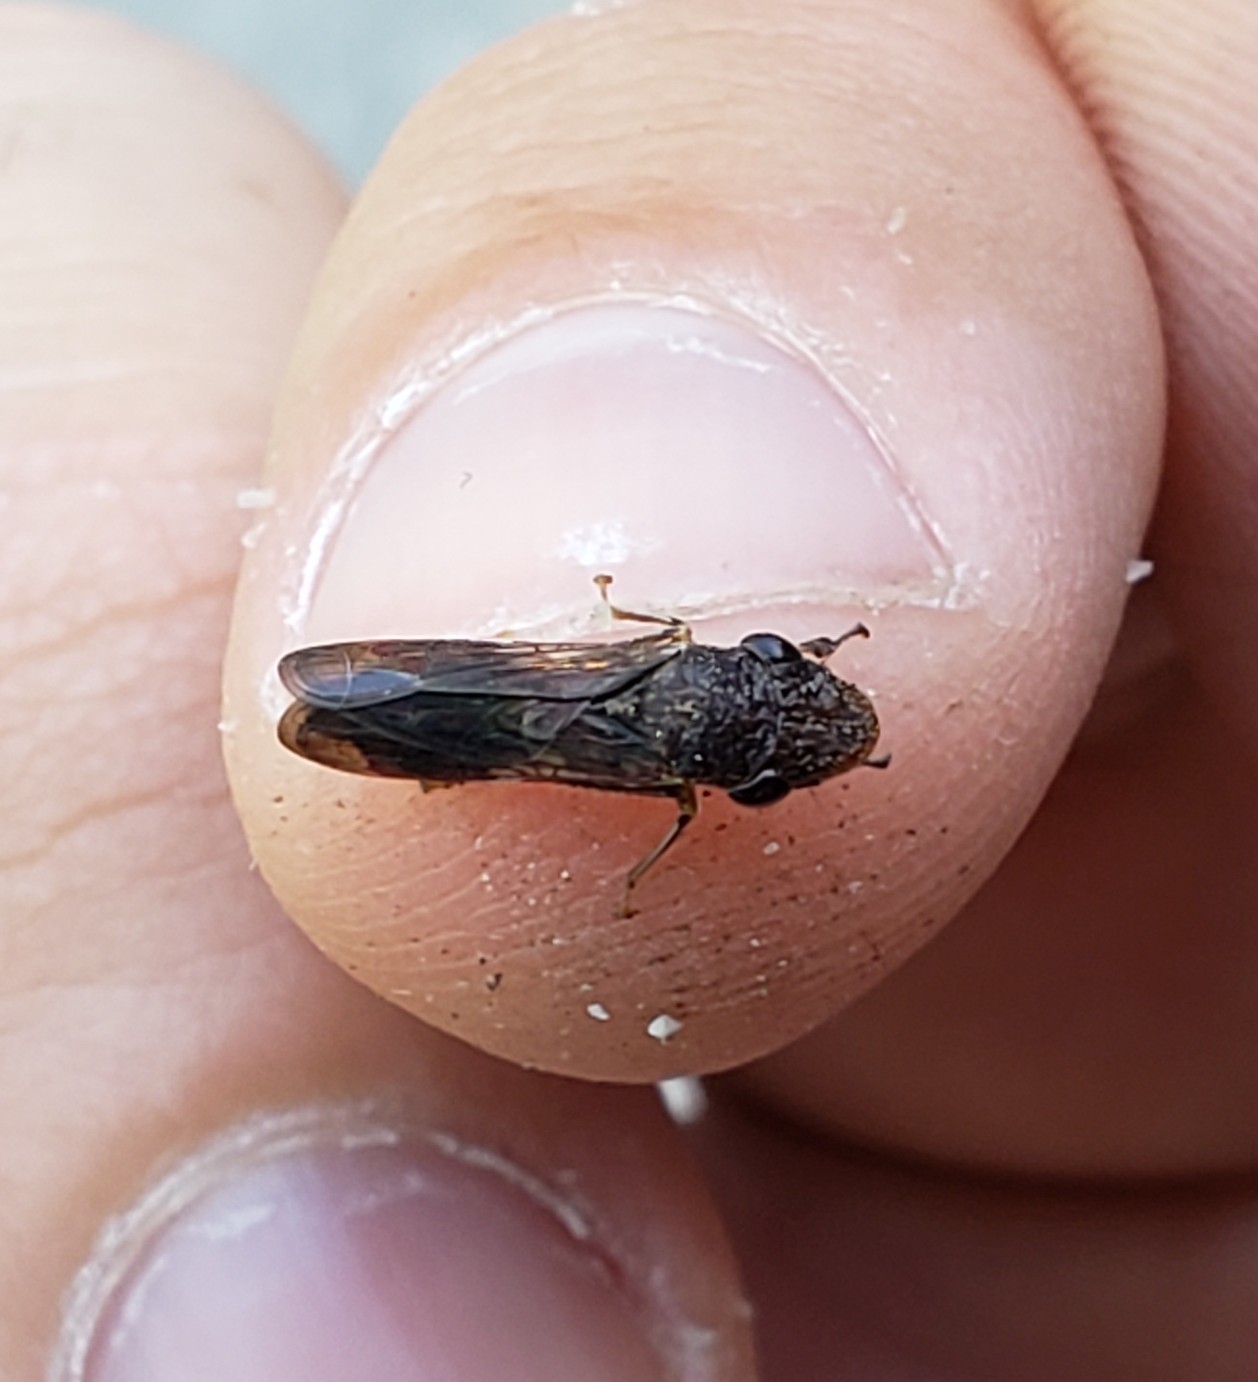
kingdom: Animalia
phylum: Arthropoda
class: Insecta
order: Hemiptera
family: Cicadellidae
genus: Homalodisca
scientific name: Homalodisca vitripennis
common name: Glassy-winged sharpshooter
